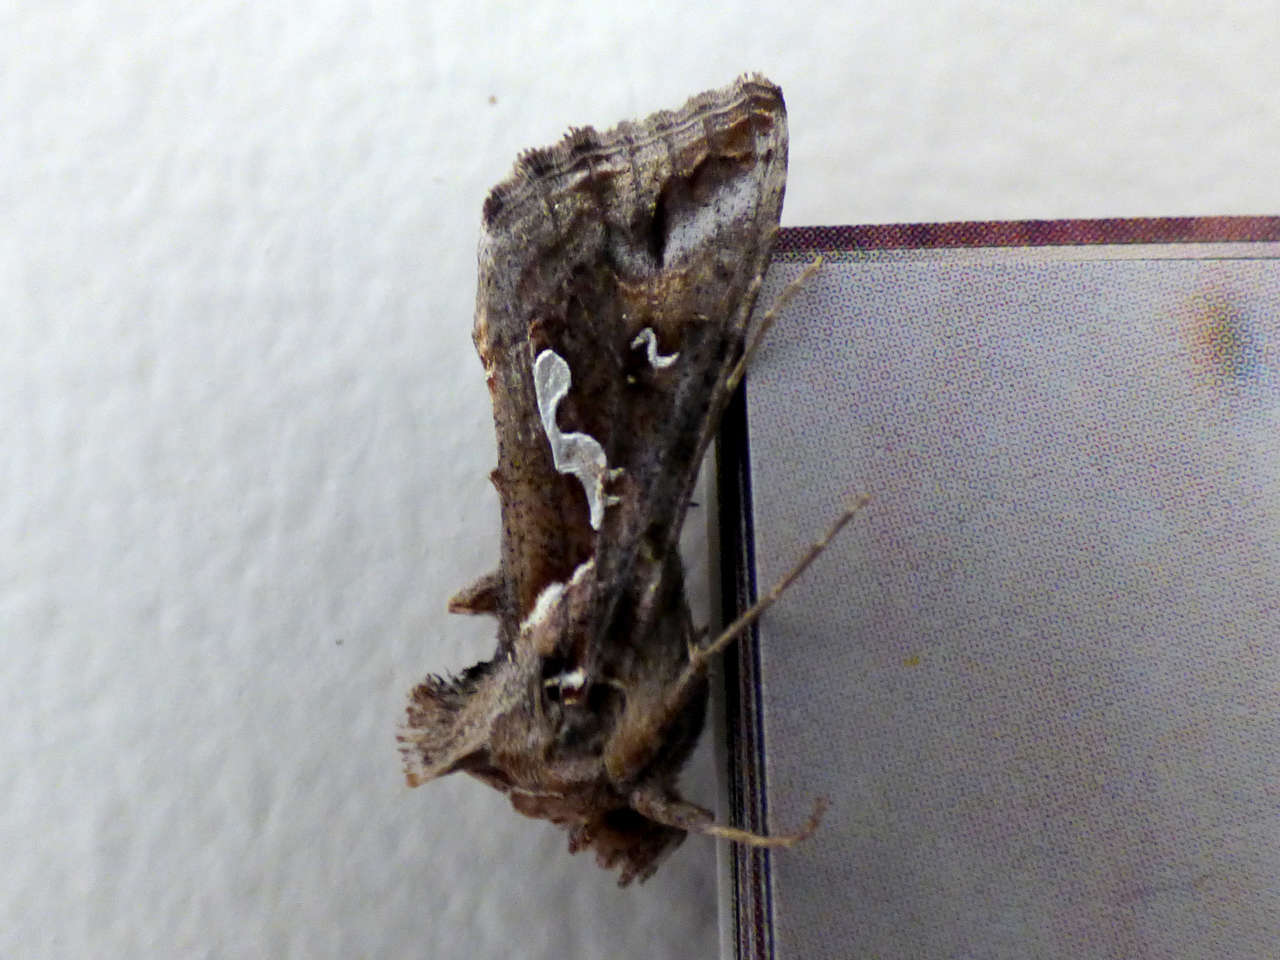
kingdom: Animalia
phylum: Arthropoda
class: Insecta
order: Lepidoptera
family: Noctuidae
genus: Chrysodeixis
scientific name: Chrysodeixis argentifera
